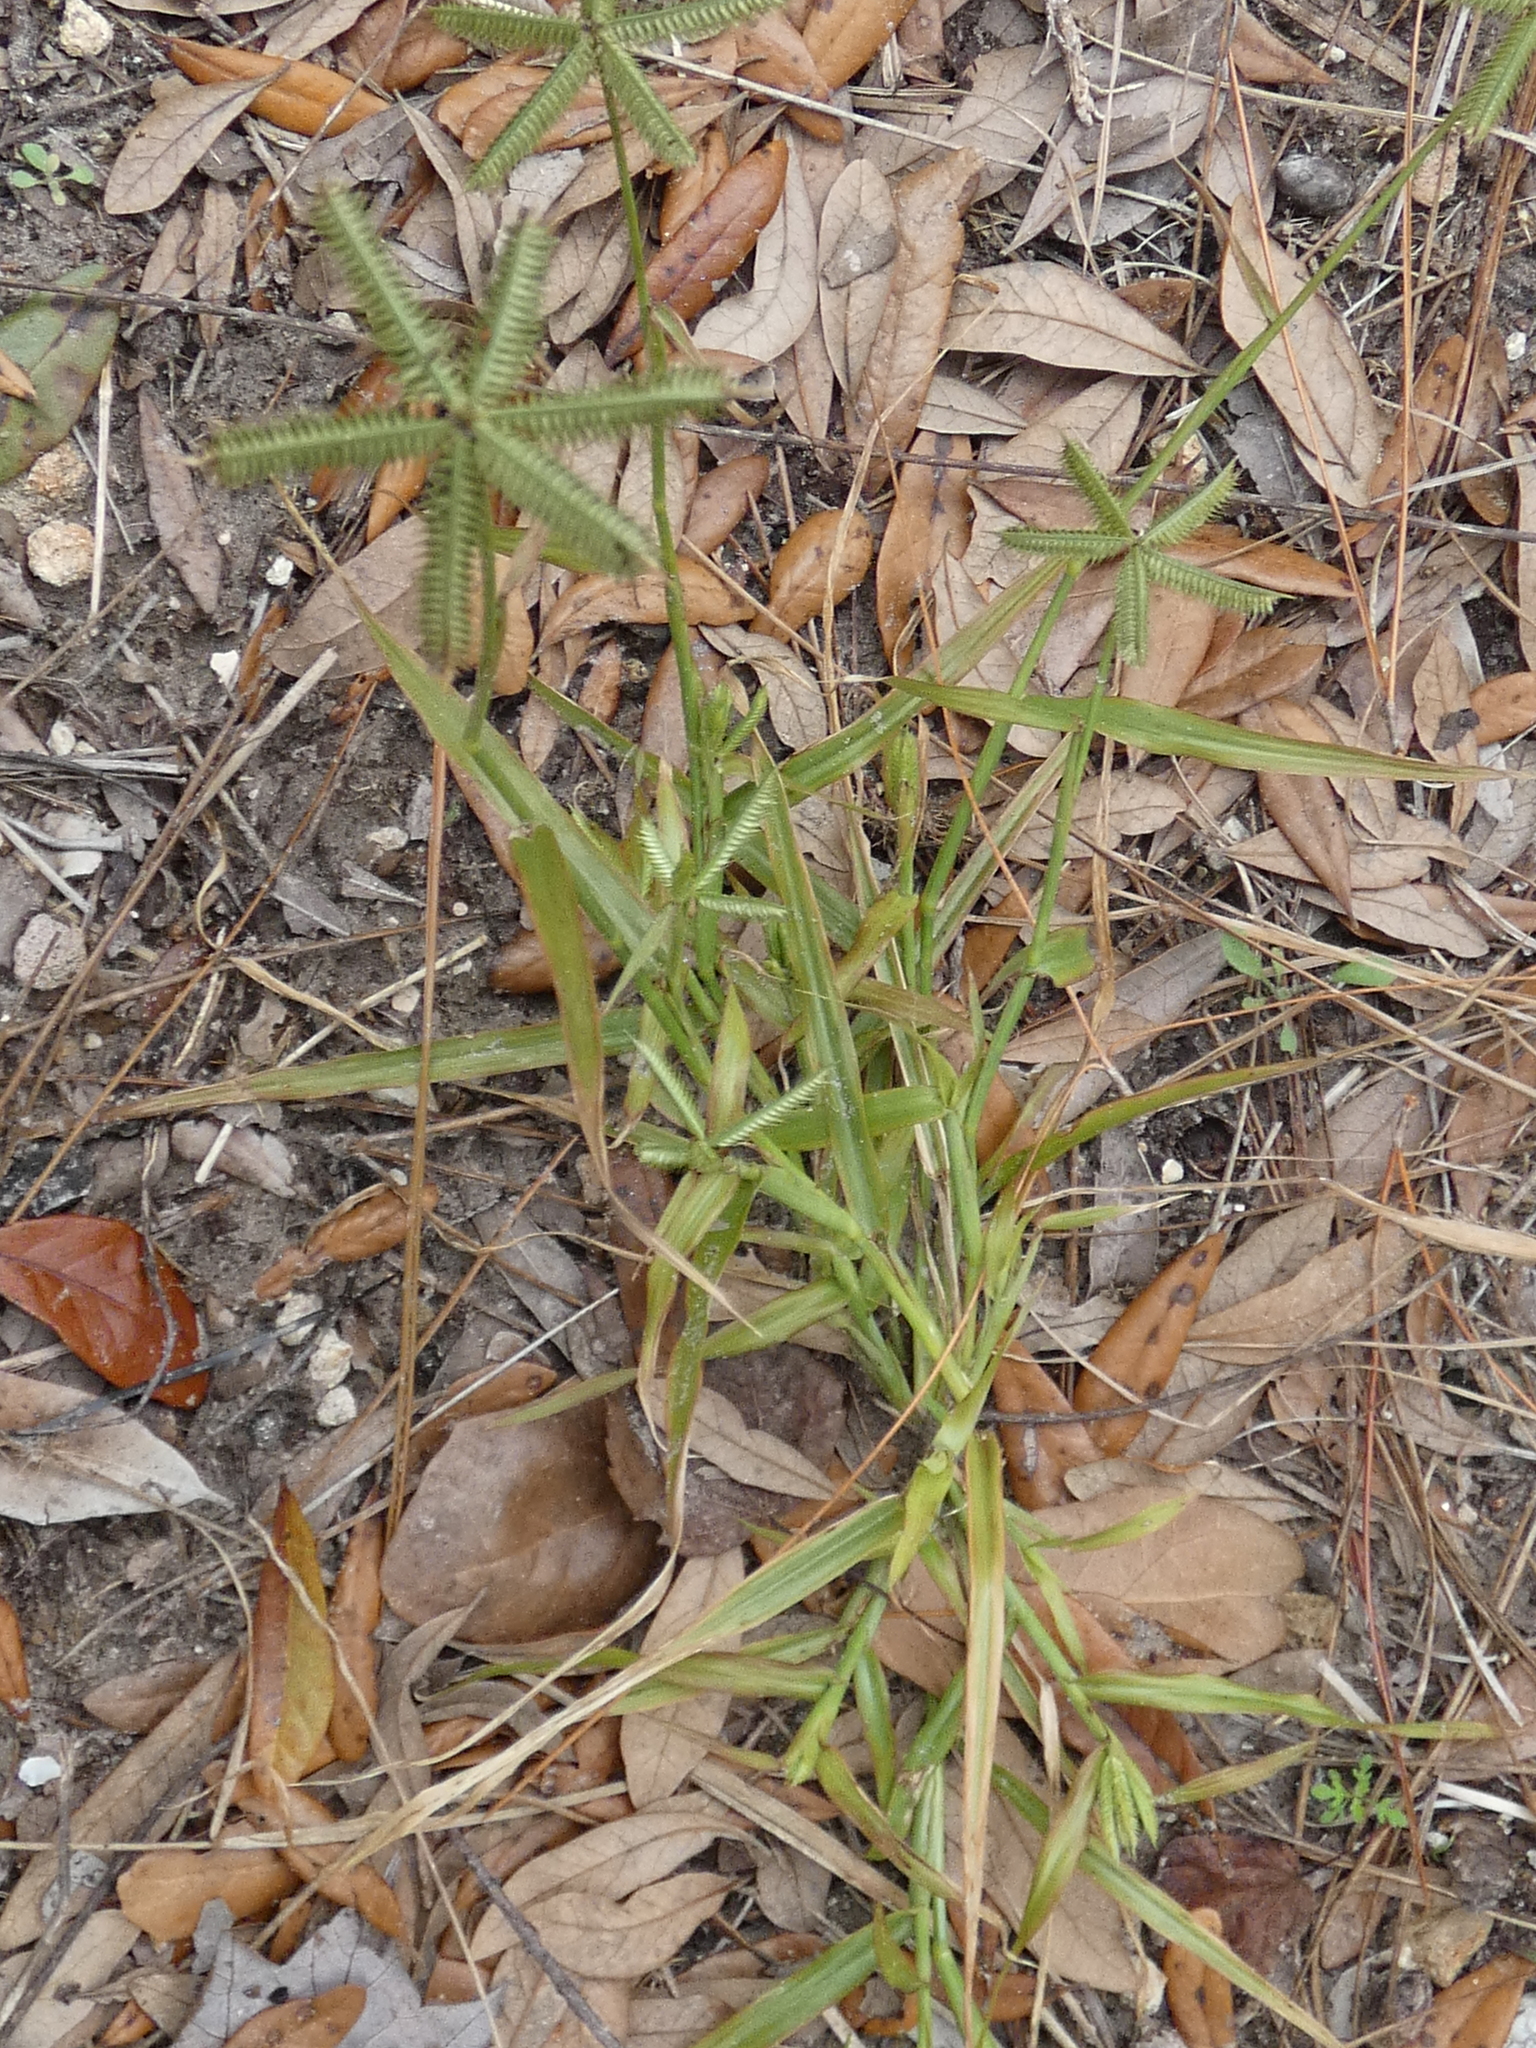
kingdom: Plantae
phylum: Tracheophyta
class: Liliopsida
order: Poales
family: Poaceae
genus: Dactyloctenium
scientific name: Dactyloctenium aegyptium
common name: Egyptian grass
